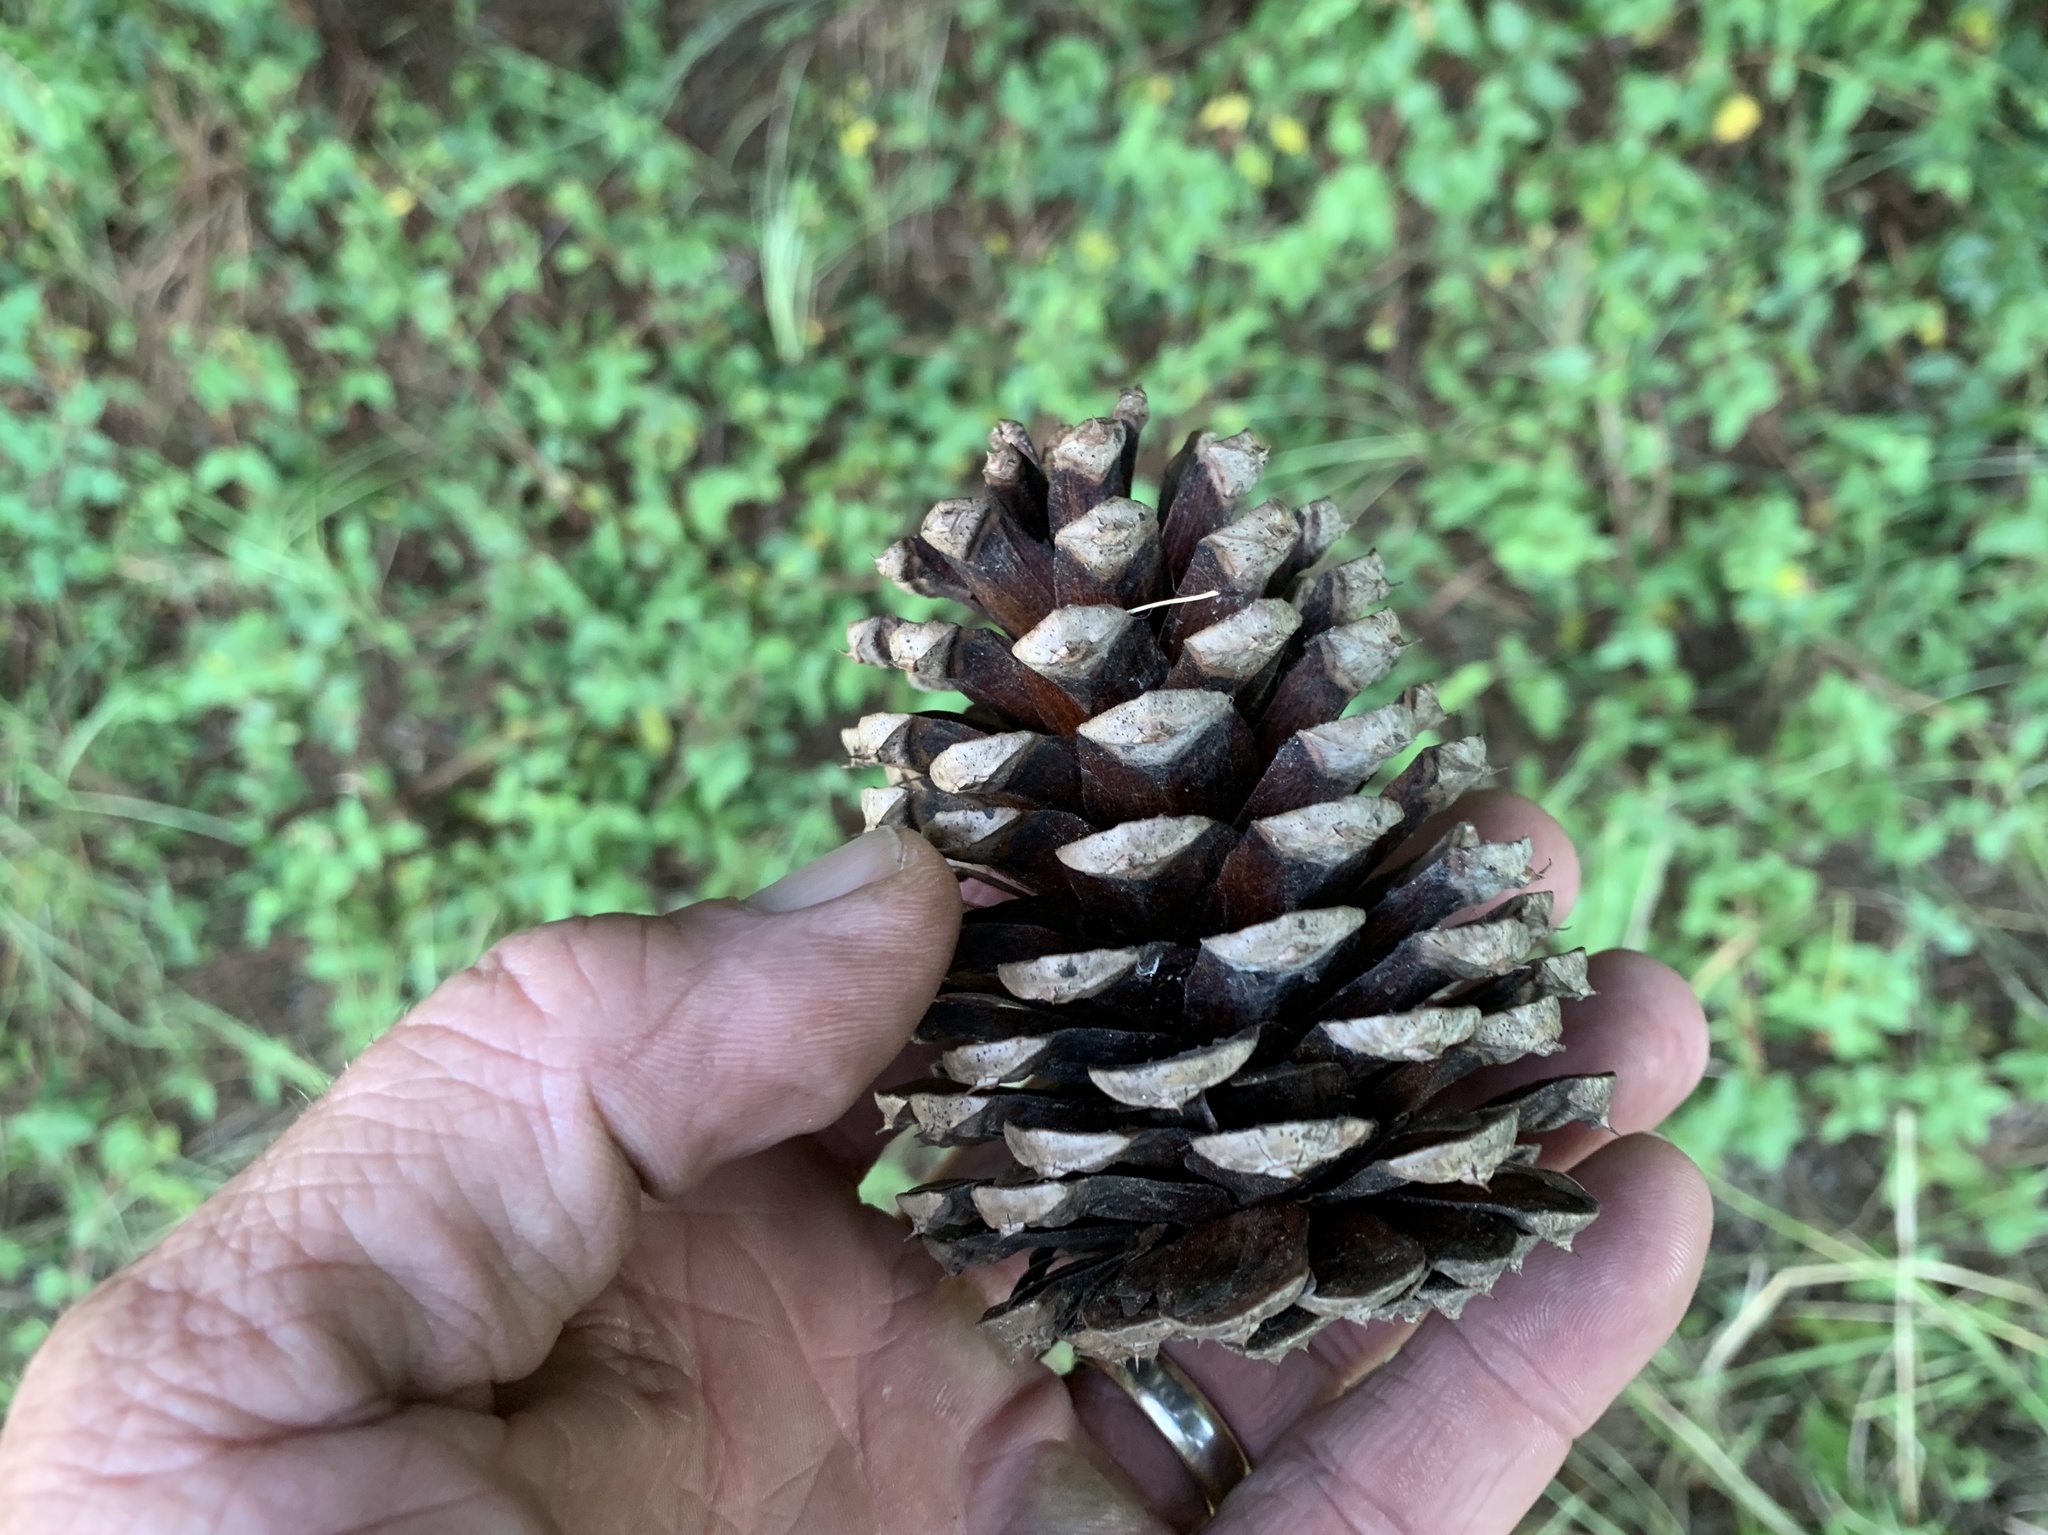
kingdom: Plantae
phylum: Tracheophyta
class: Pinopsida
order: Pinales
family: Pinaceae
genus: Pinus
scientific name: Pinus taeda
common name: Loblolly pine
